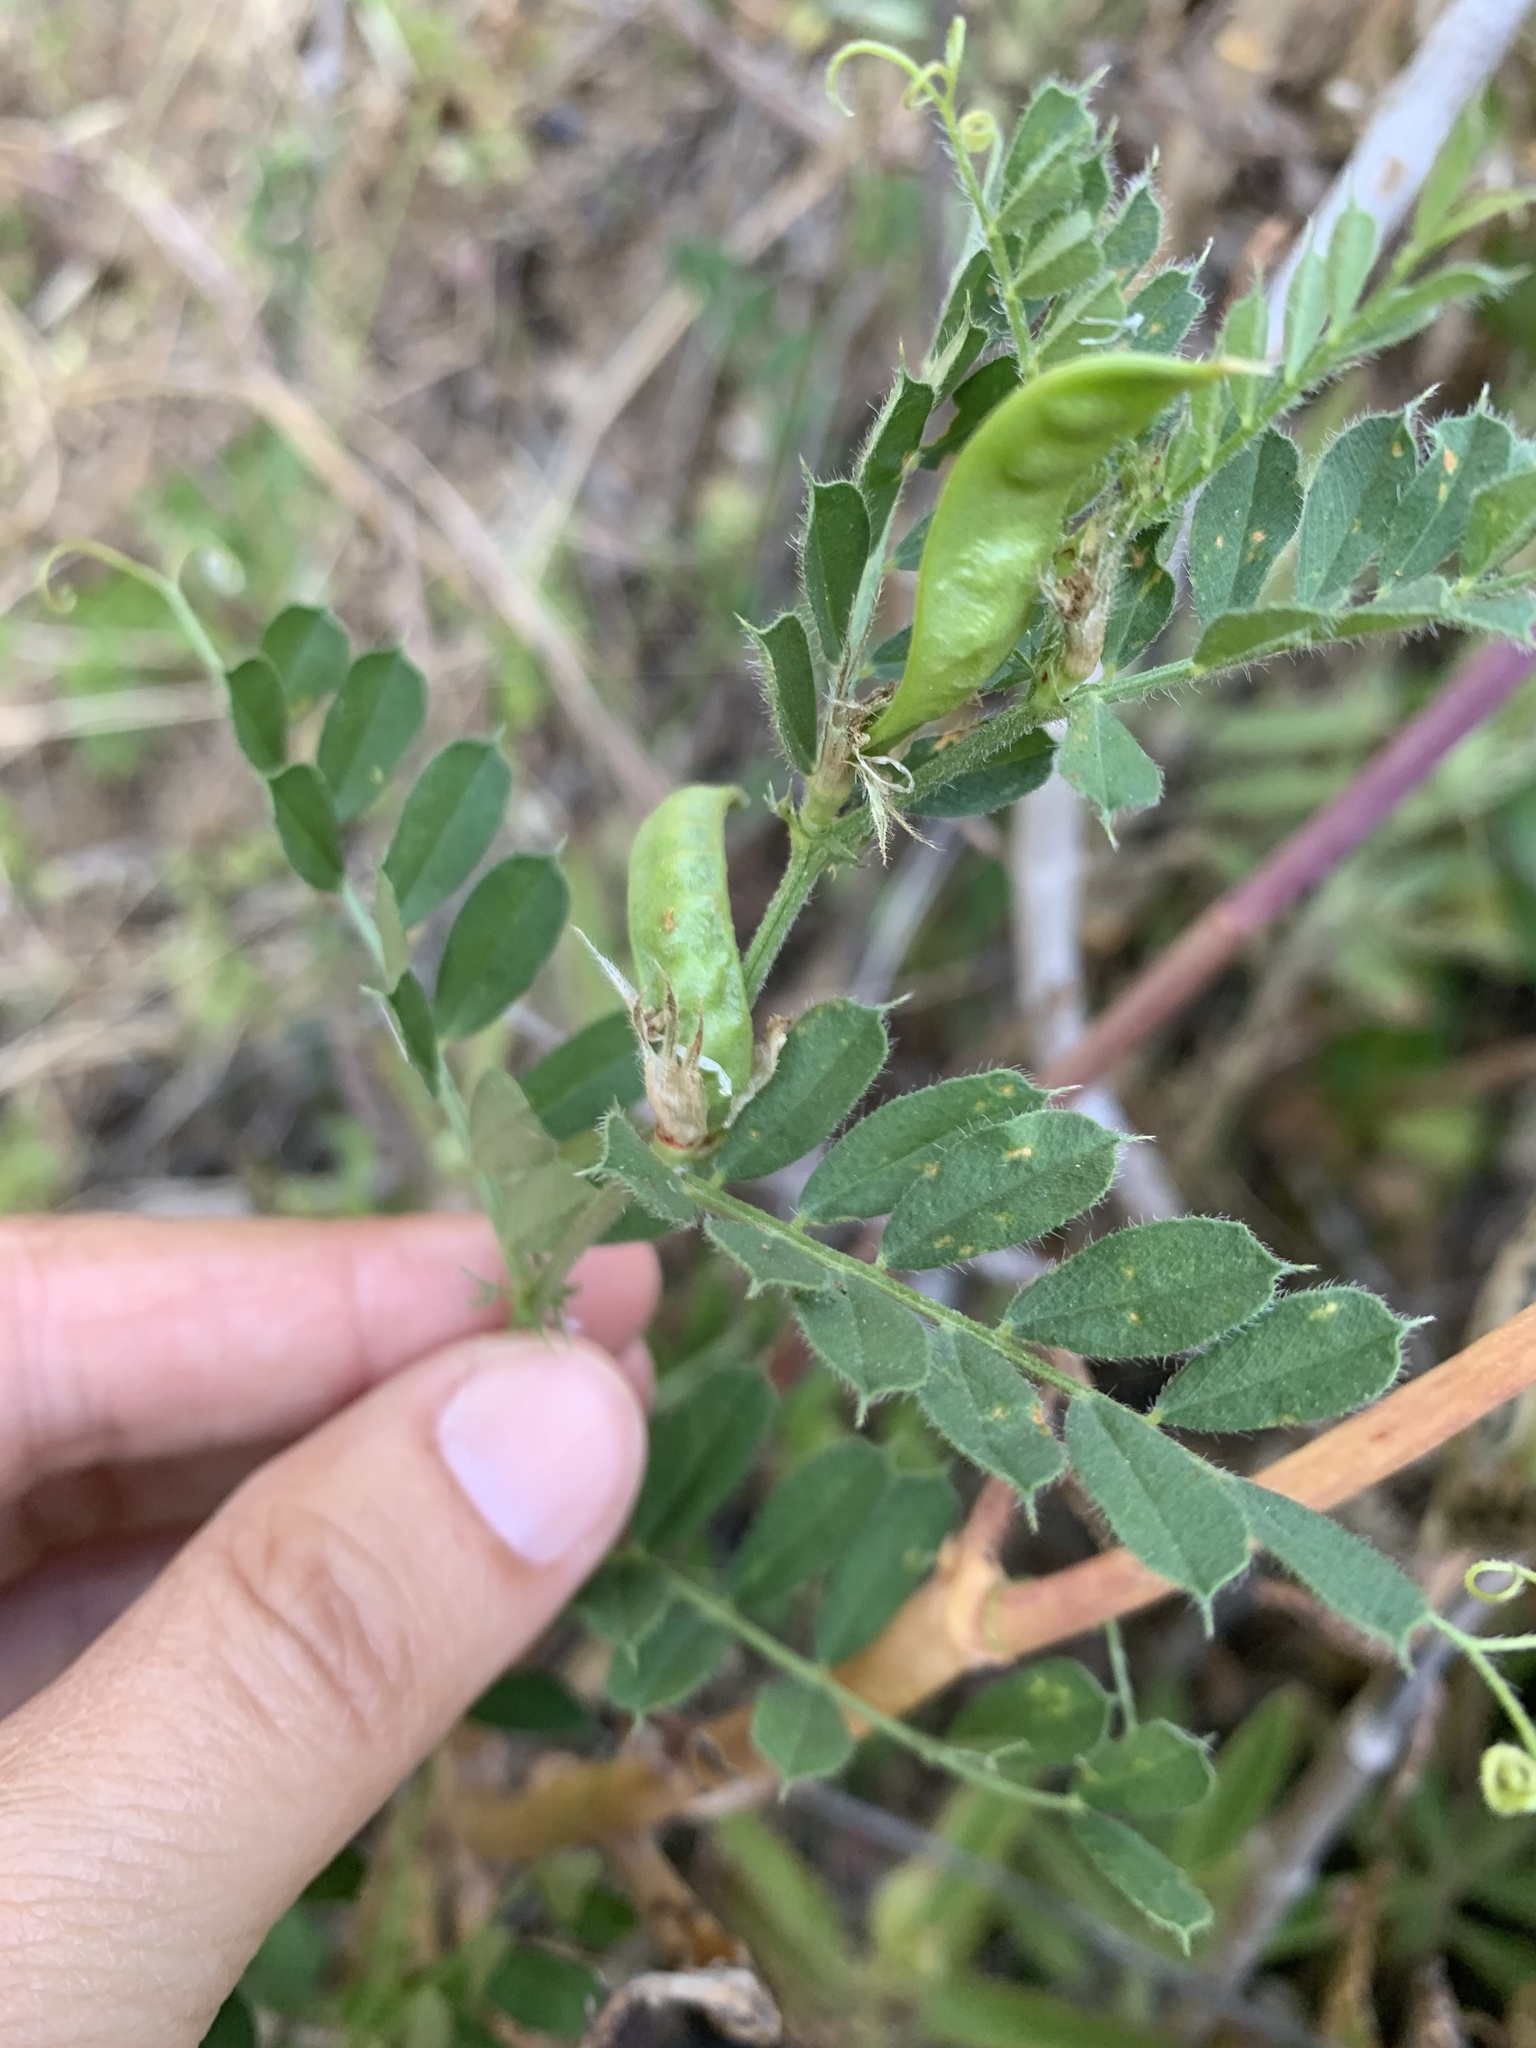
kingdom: Plantae
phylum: Tracheophyta
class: Magnoliopsida
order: Fabales
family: Fabaceae
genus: Vicia
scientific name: Vicia sativa
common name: Garden vetch
